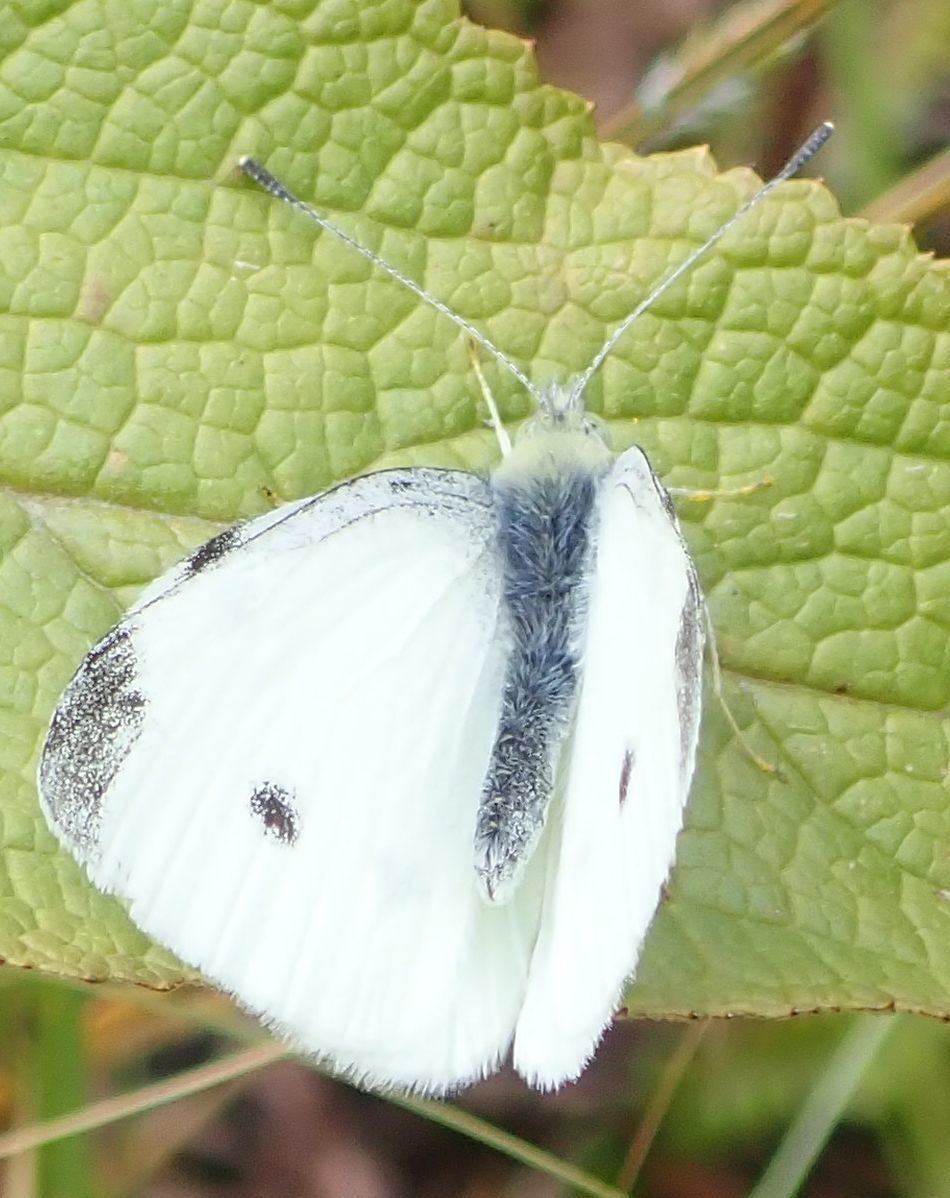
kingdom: Animalia
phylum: Arthropoda
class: Insecta
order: Lepidoptera
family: Pieridae
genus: Pieris
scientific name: Pieris rapae
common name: Small white
